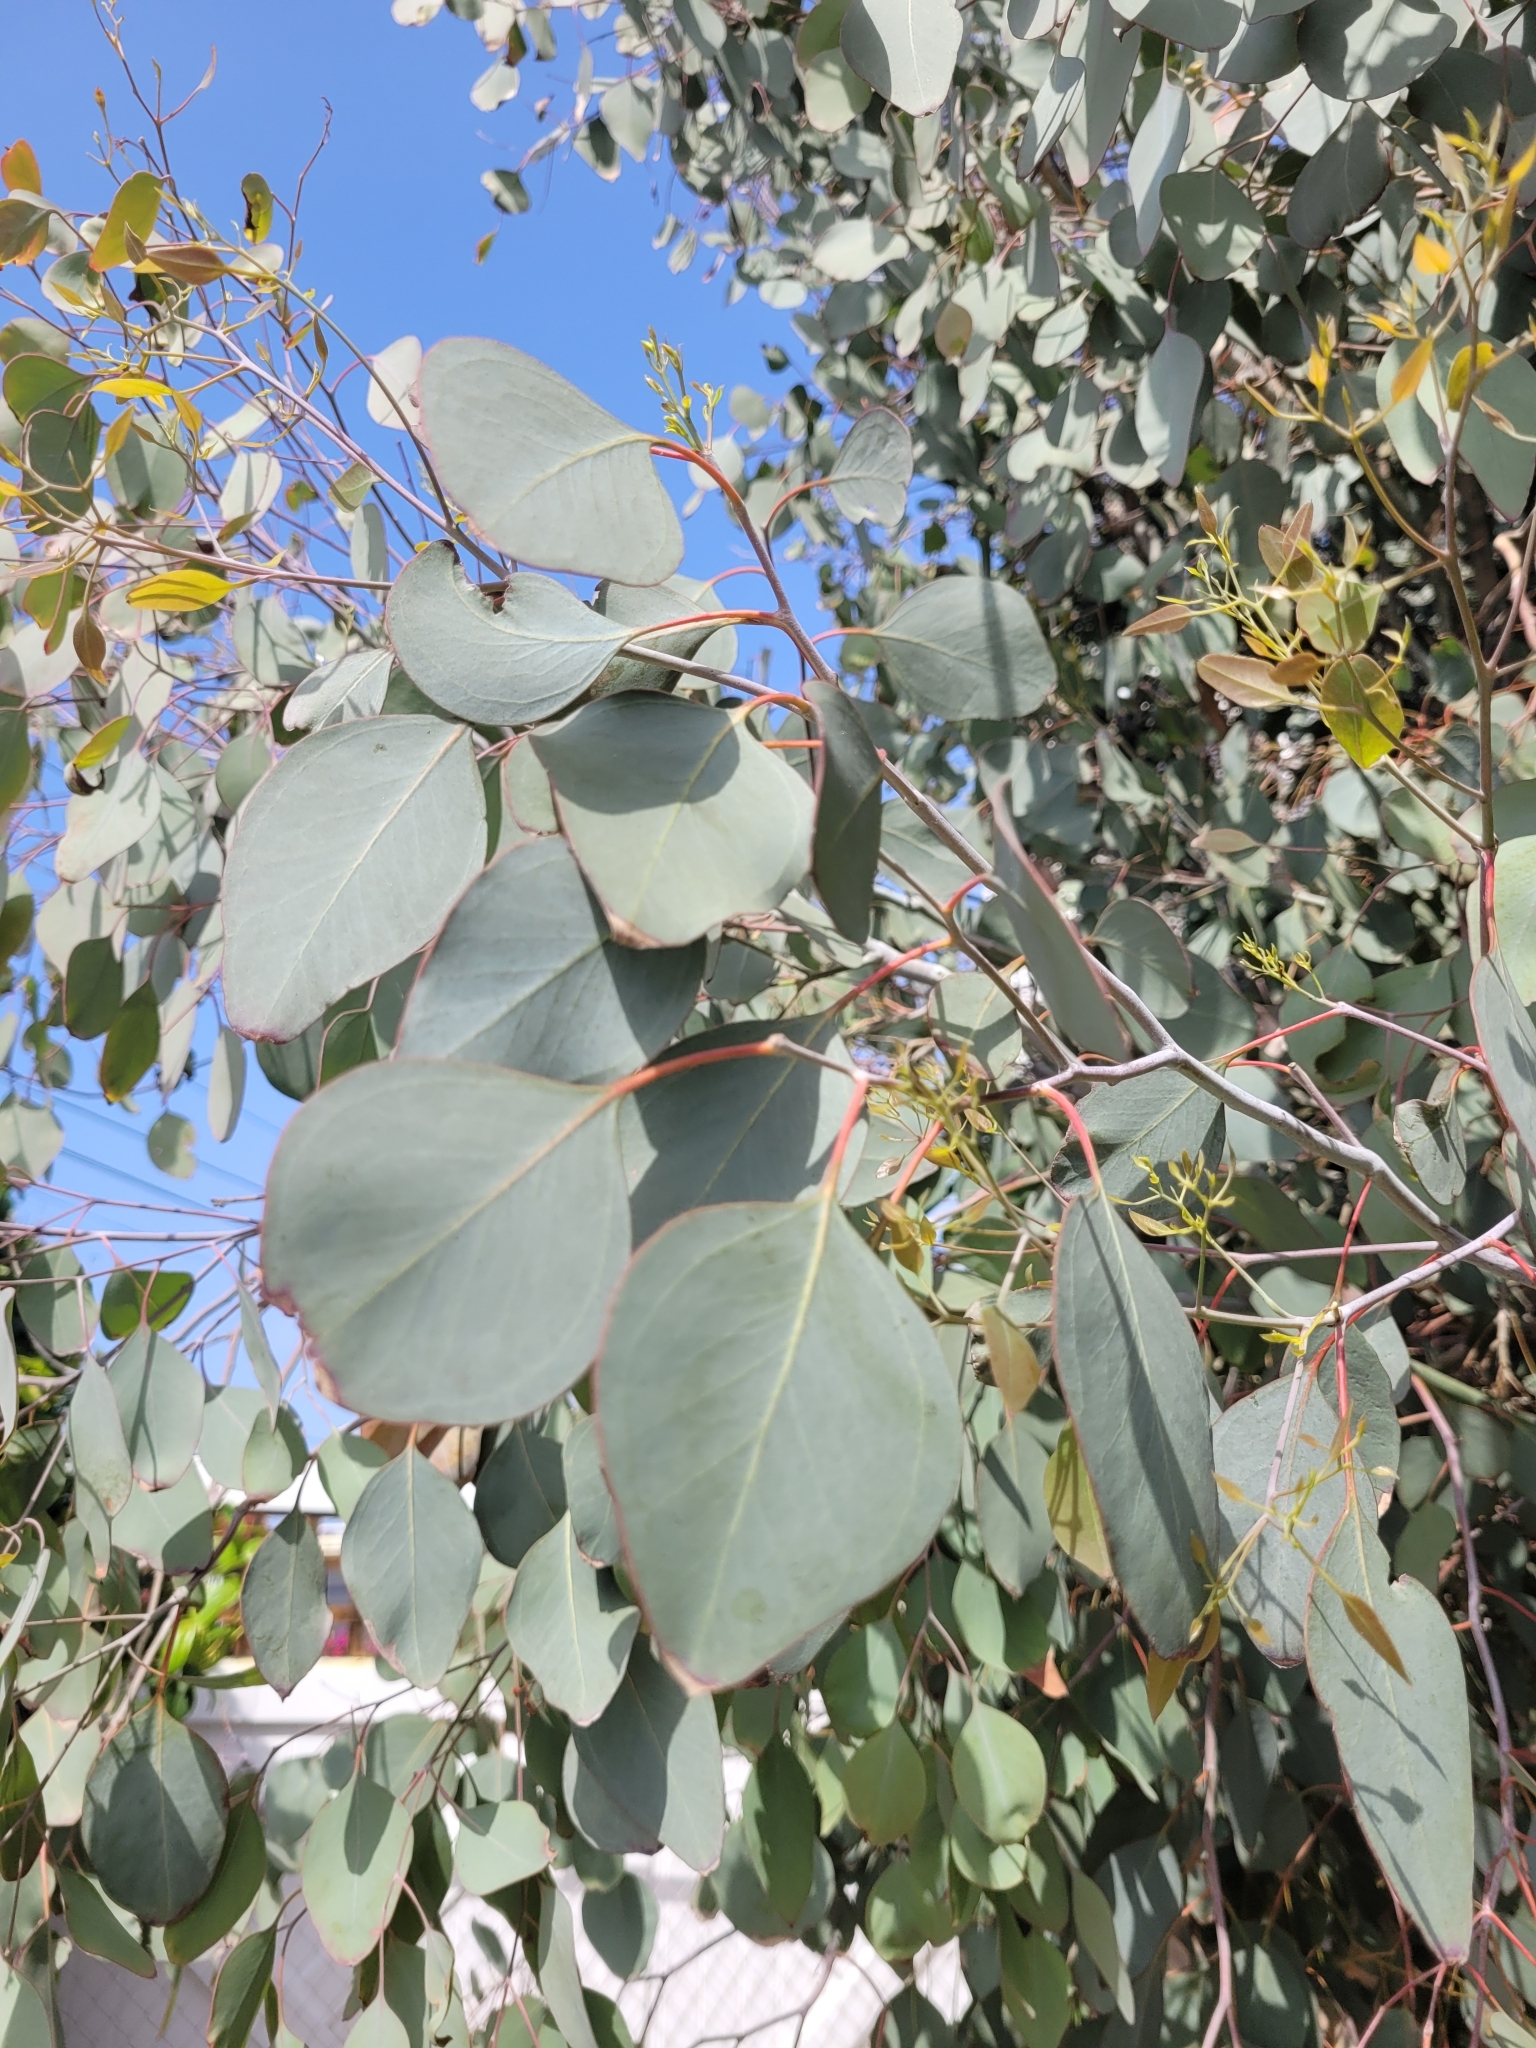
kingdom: Plantae
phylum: Tracheophyta
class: Magnoliopsida
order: Myrtales
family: Myrtaceae
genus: Eucalyptus
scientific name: Eucalyptus polyanthemos
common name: Red-box
